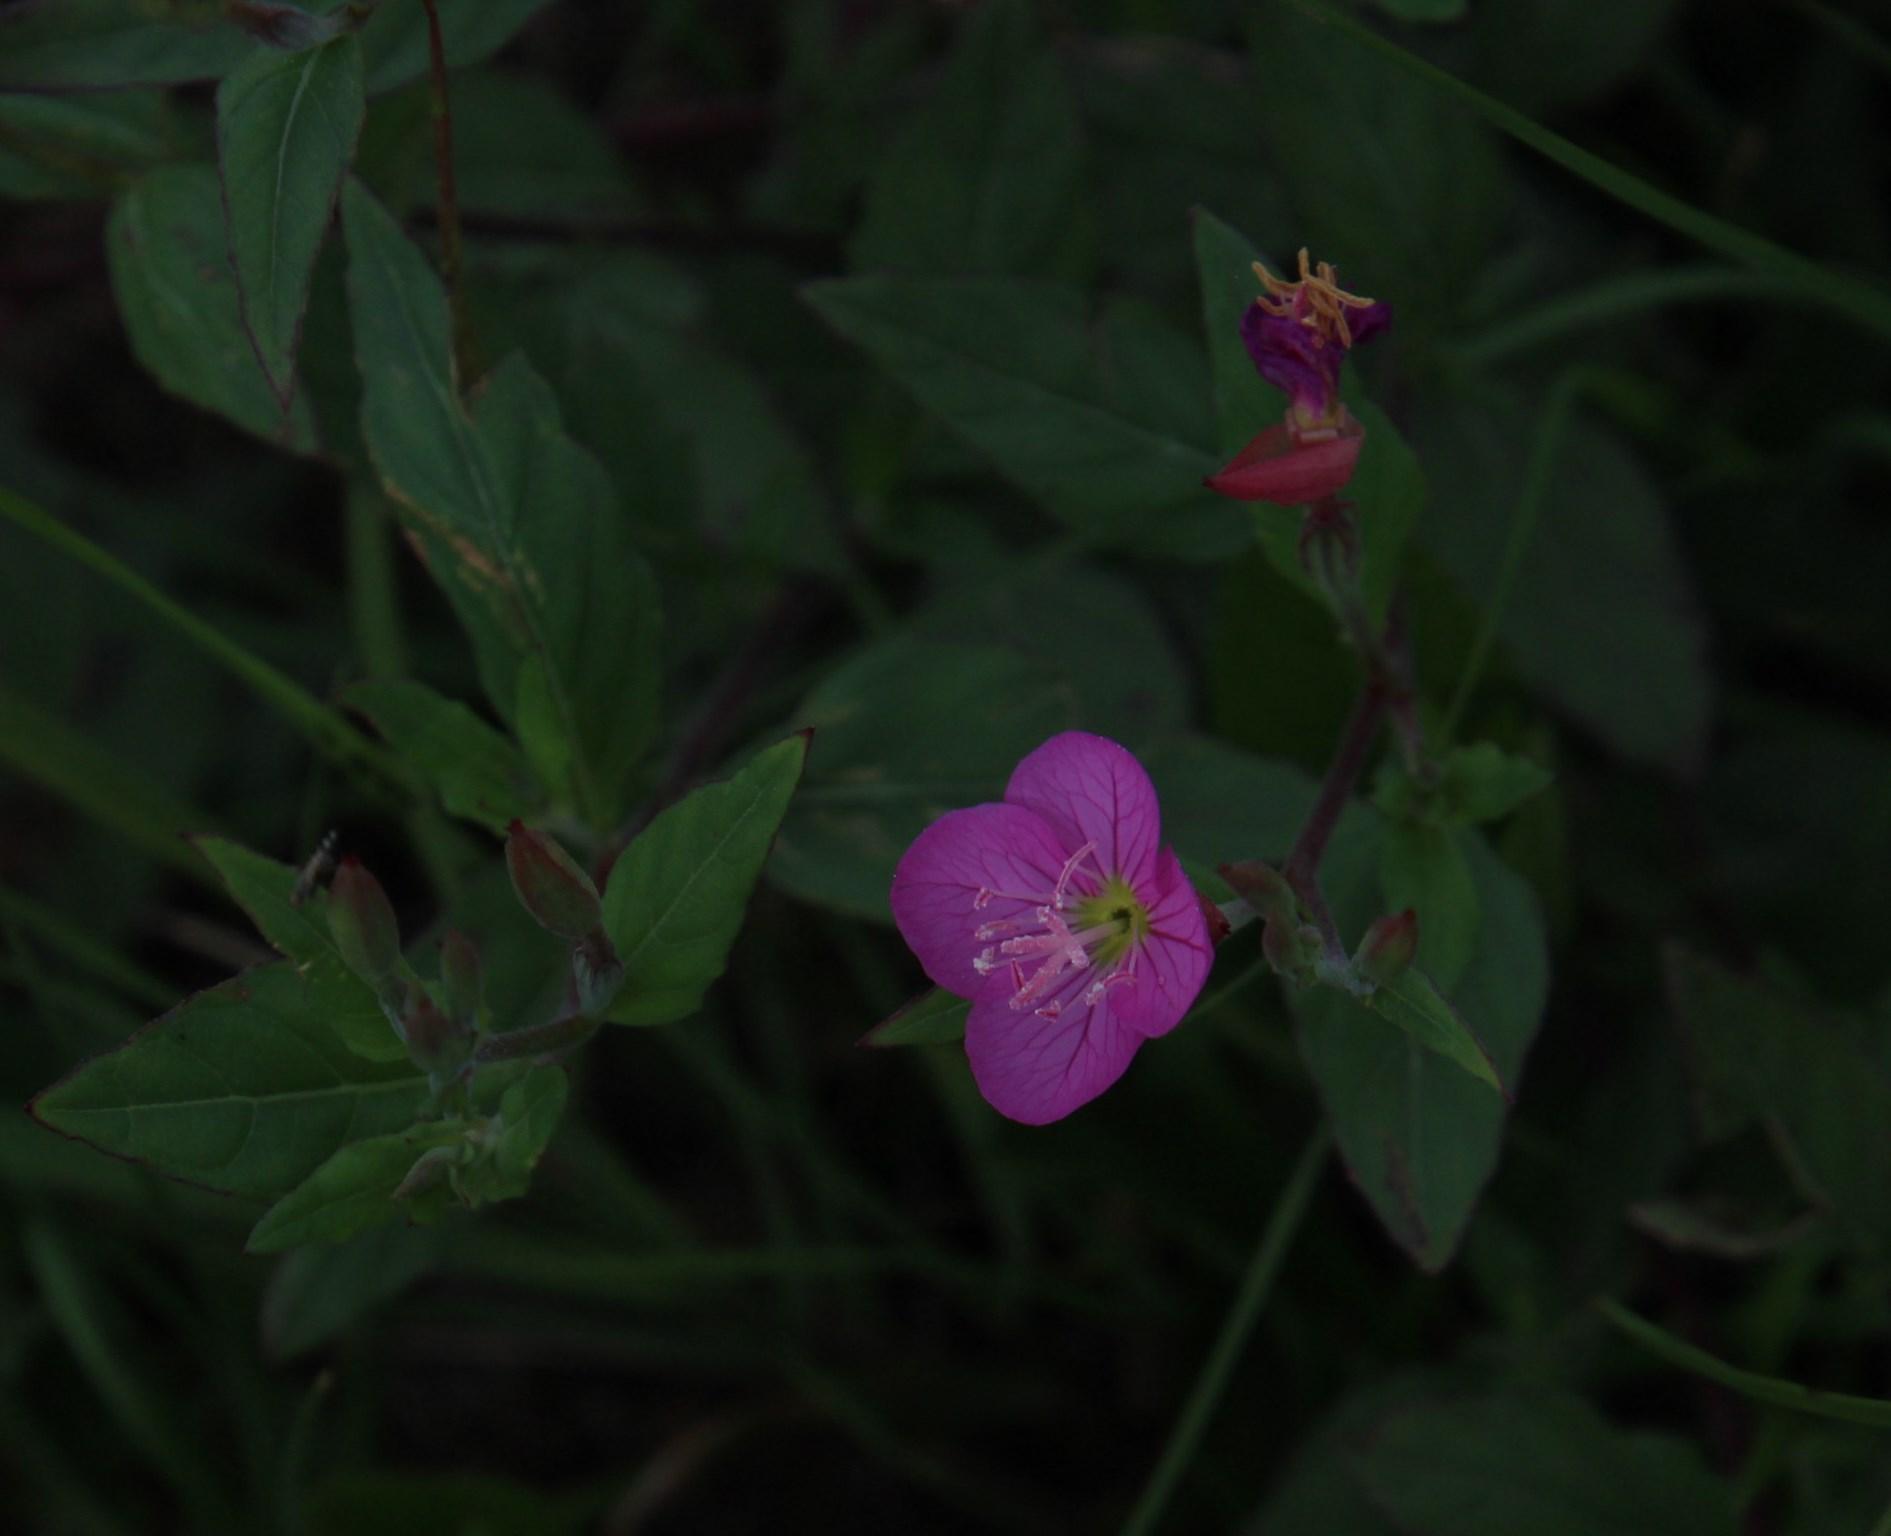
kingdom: Plantae
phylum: Tracheophyta
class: Magnoliopsida
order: Myrtales
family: Onagraceae
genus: Oenothera
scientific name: Oenothera rosea
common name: Rosy evening-primrose
